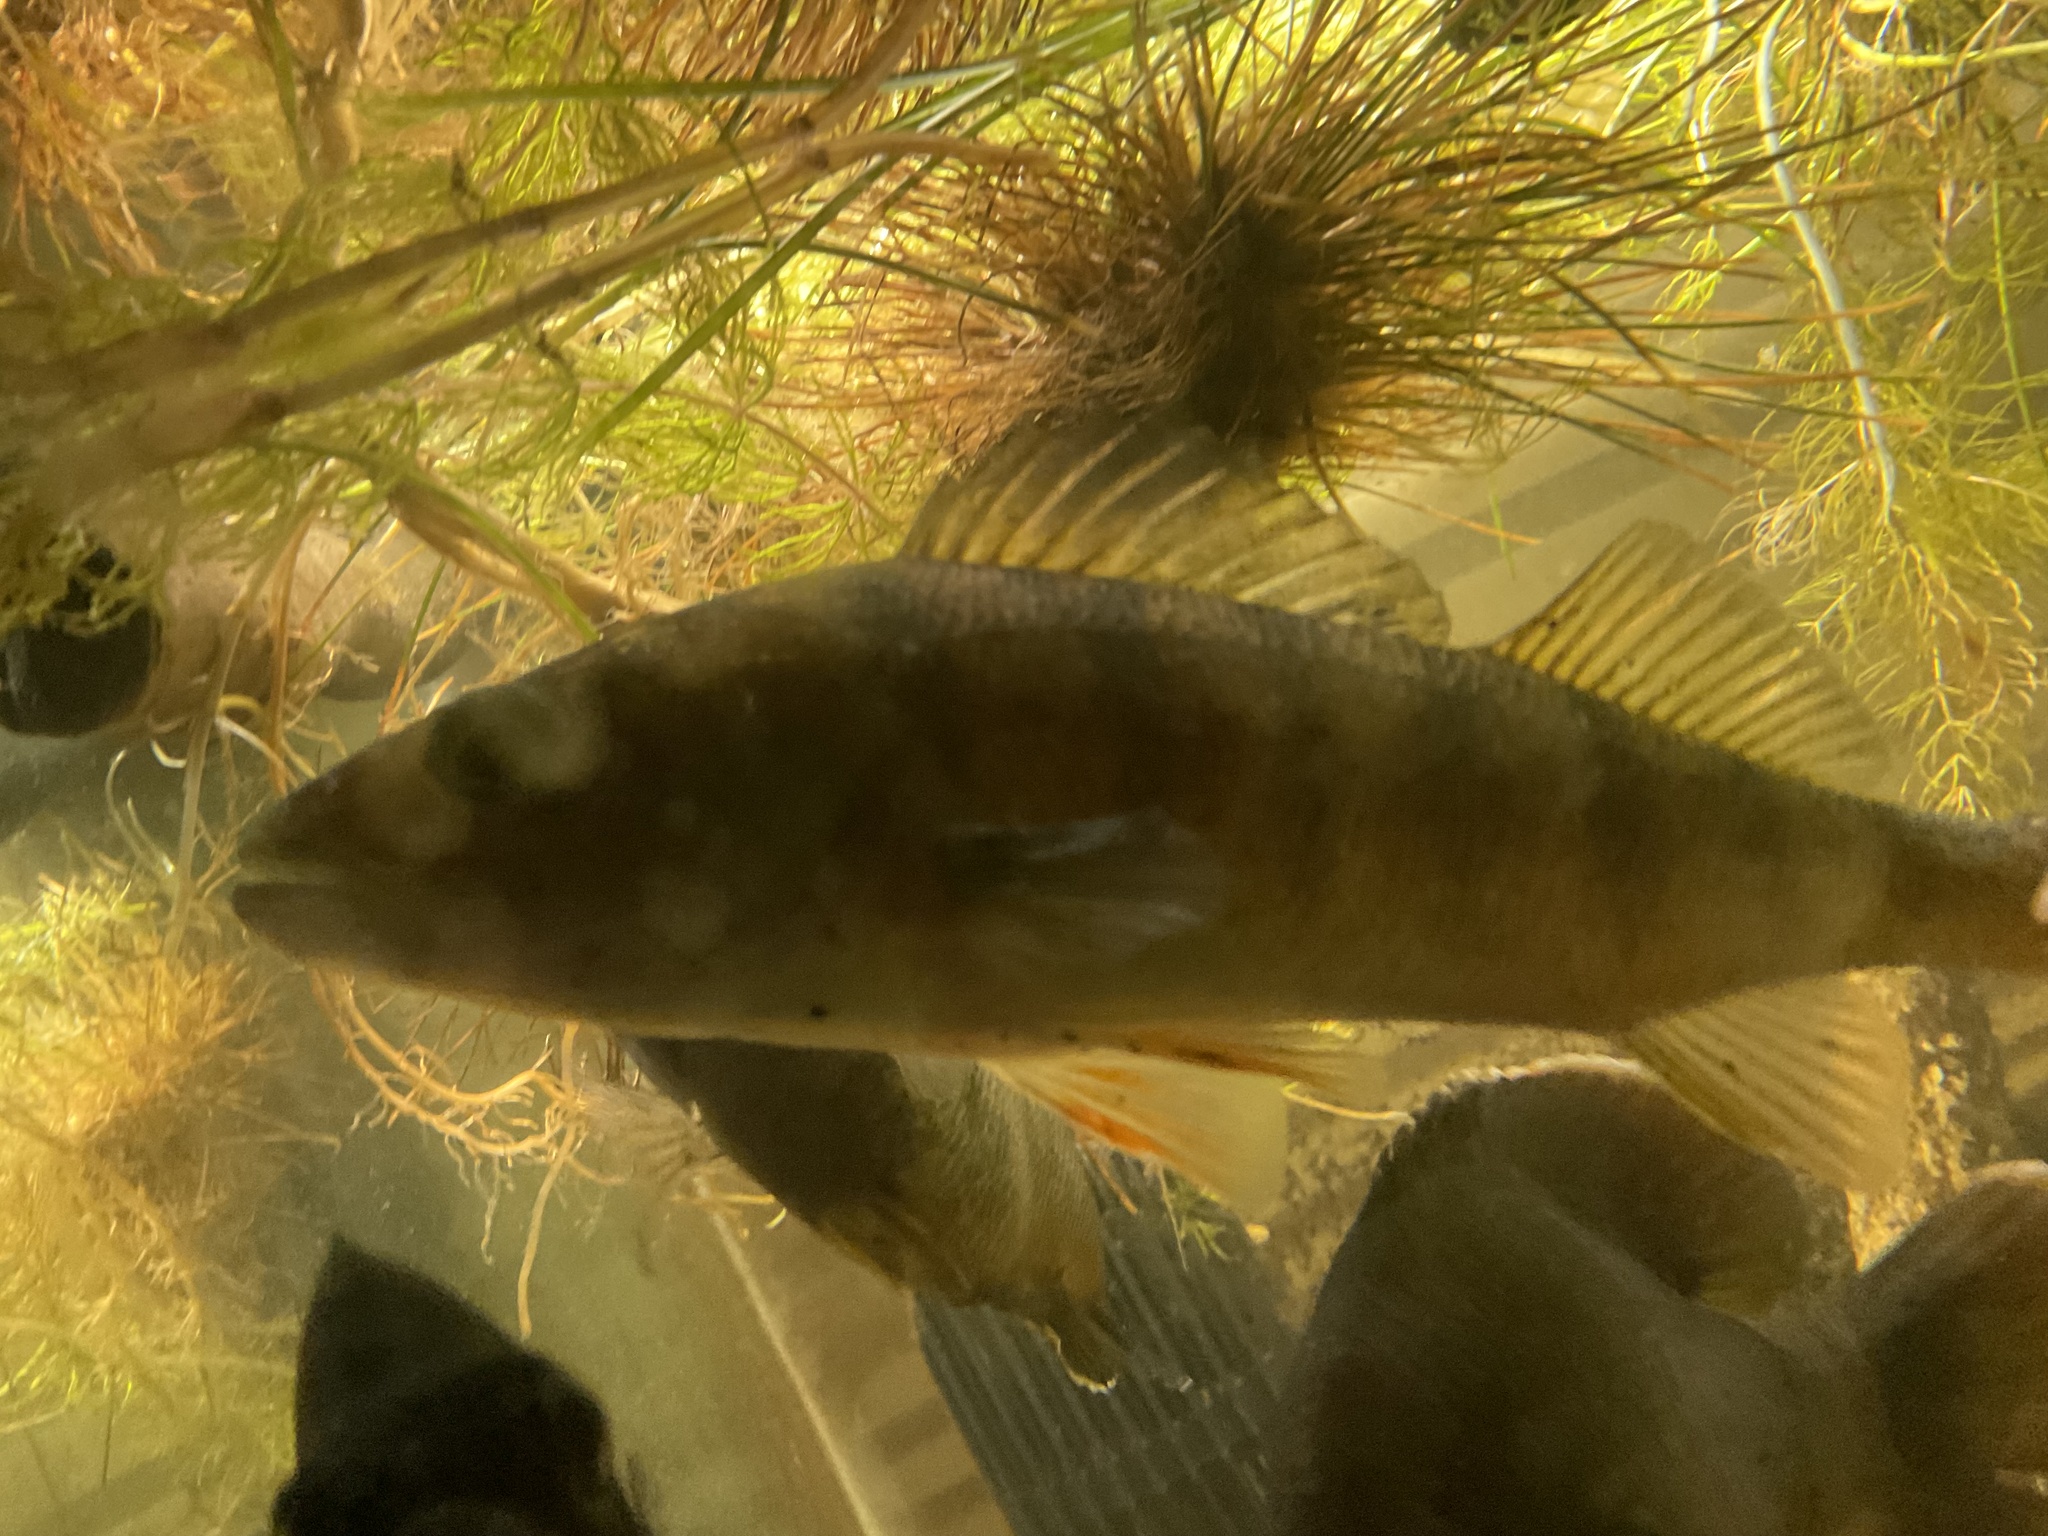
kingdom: Animalia
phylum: Chordata
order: Perciformes
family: Percidae
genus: Perca
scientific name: Perca flavescens
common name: Yellow perch
